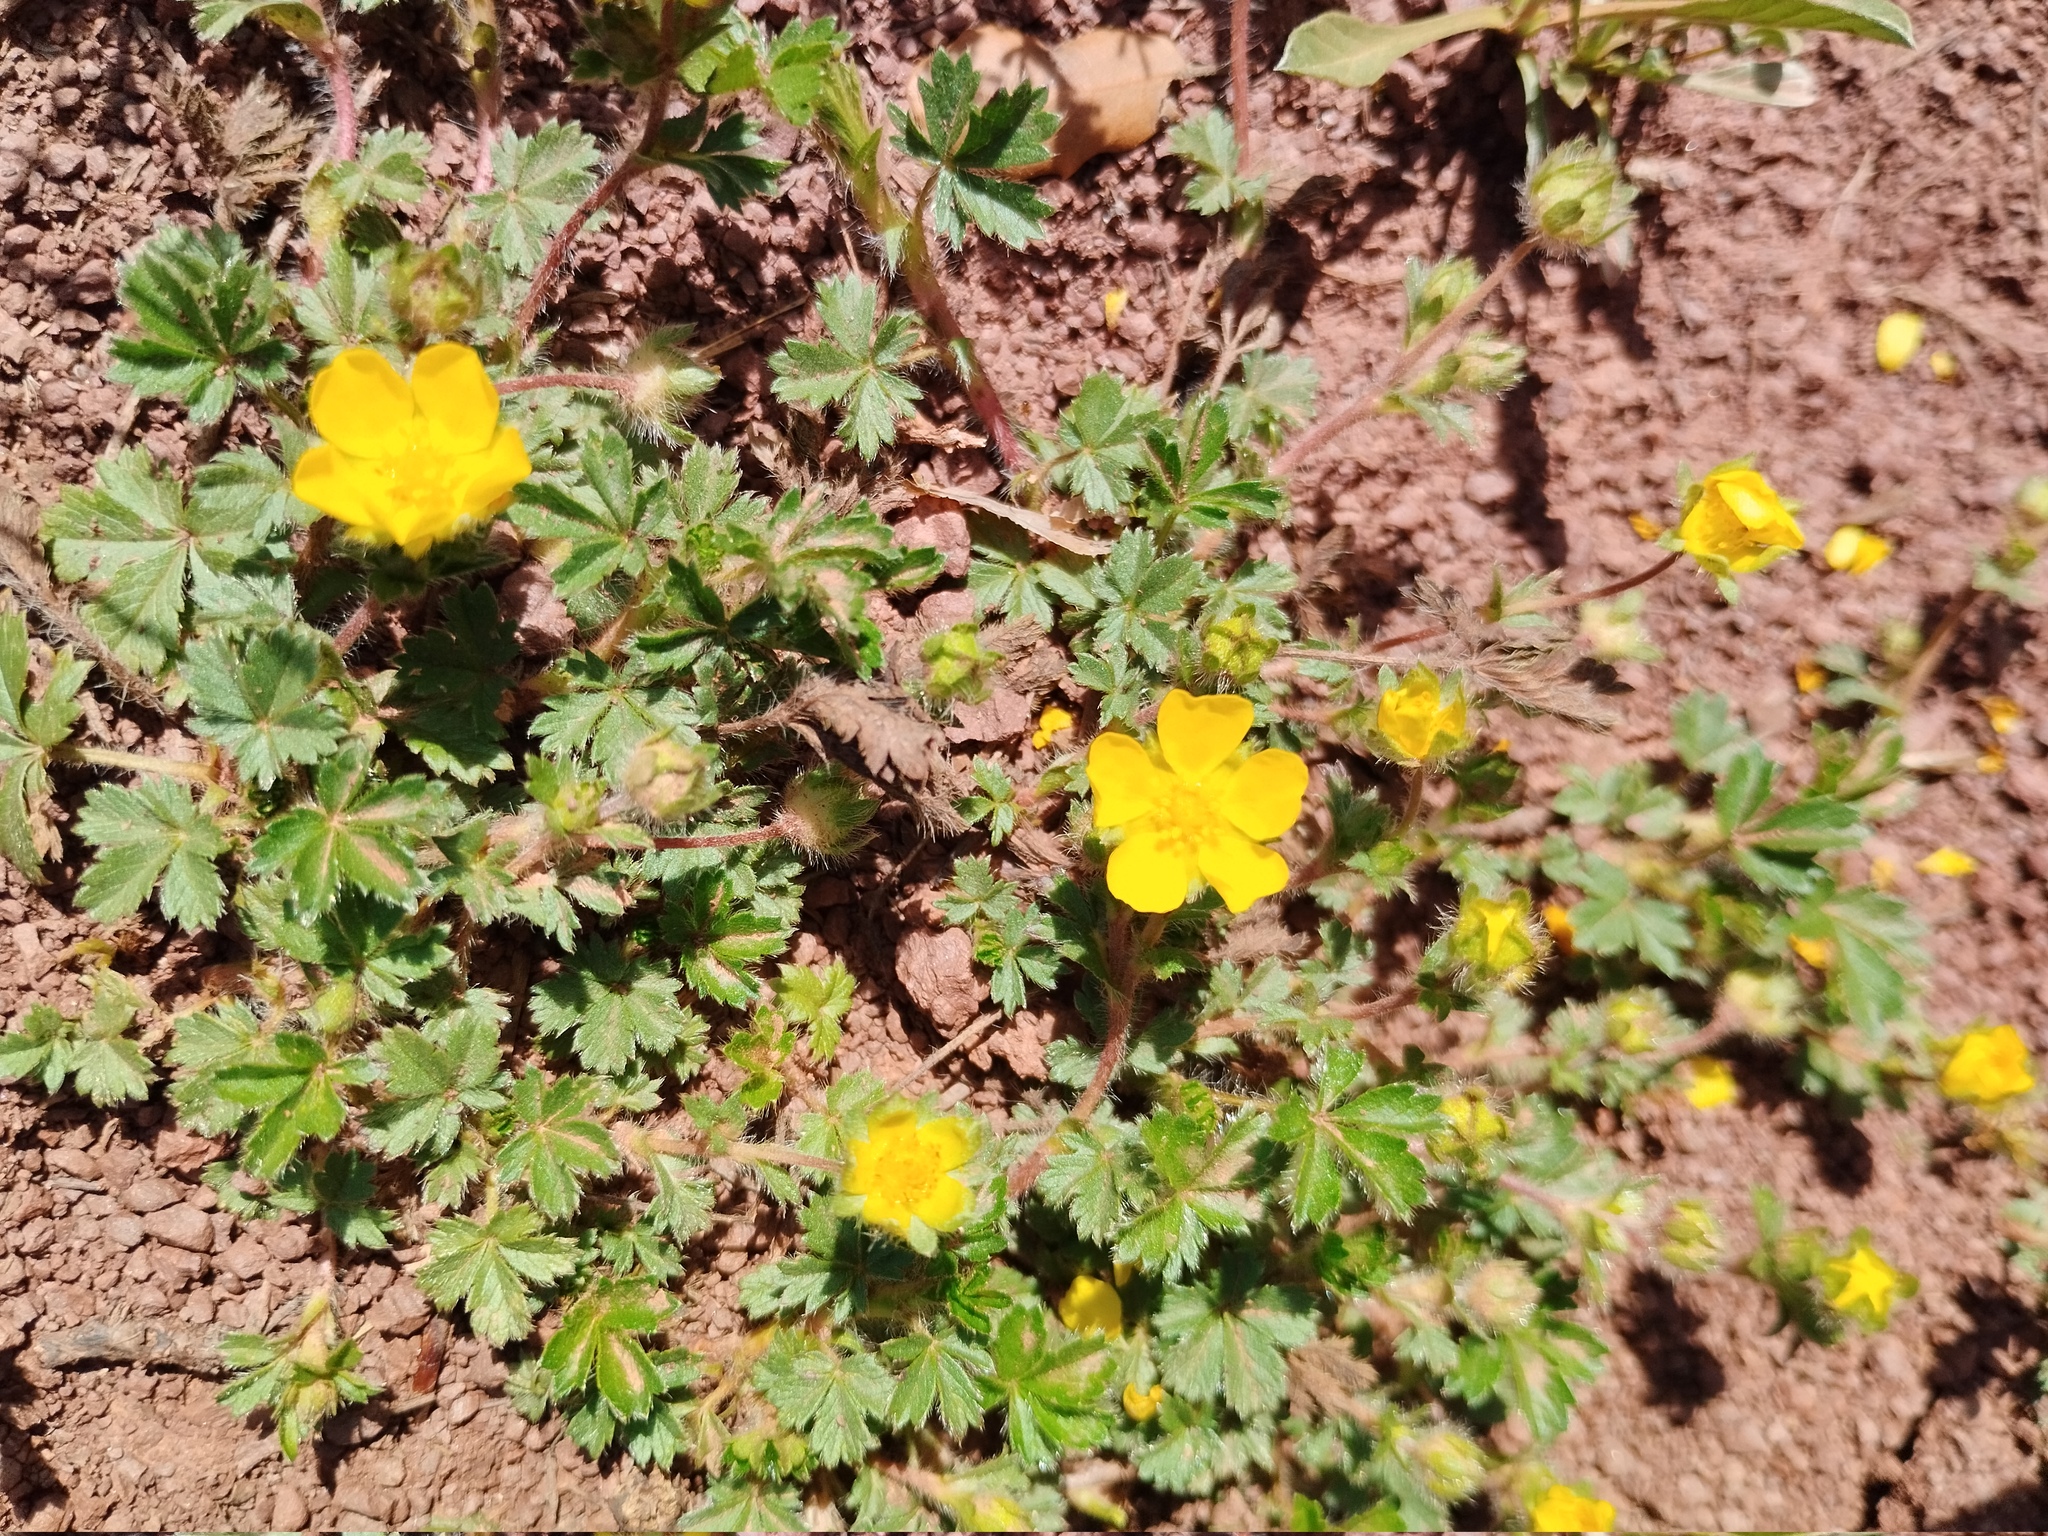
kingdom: Plantae
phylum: Tracheophyta
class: Magnoliopsida
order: Rosales
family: Rosaceae
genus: Potentilla
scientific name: Potentilla verna
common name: Spring cinquefoil
